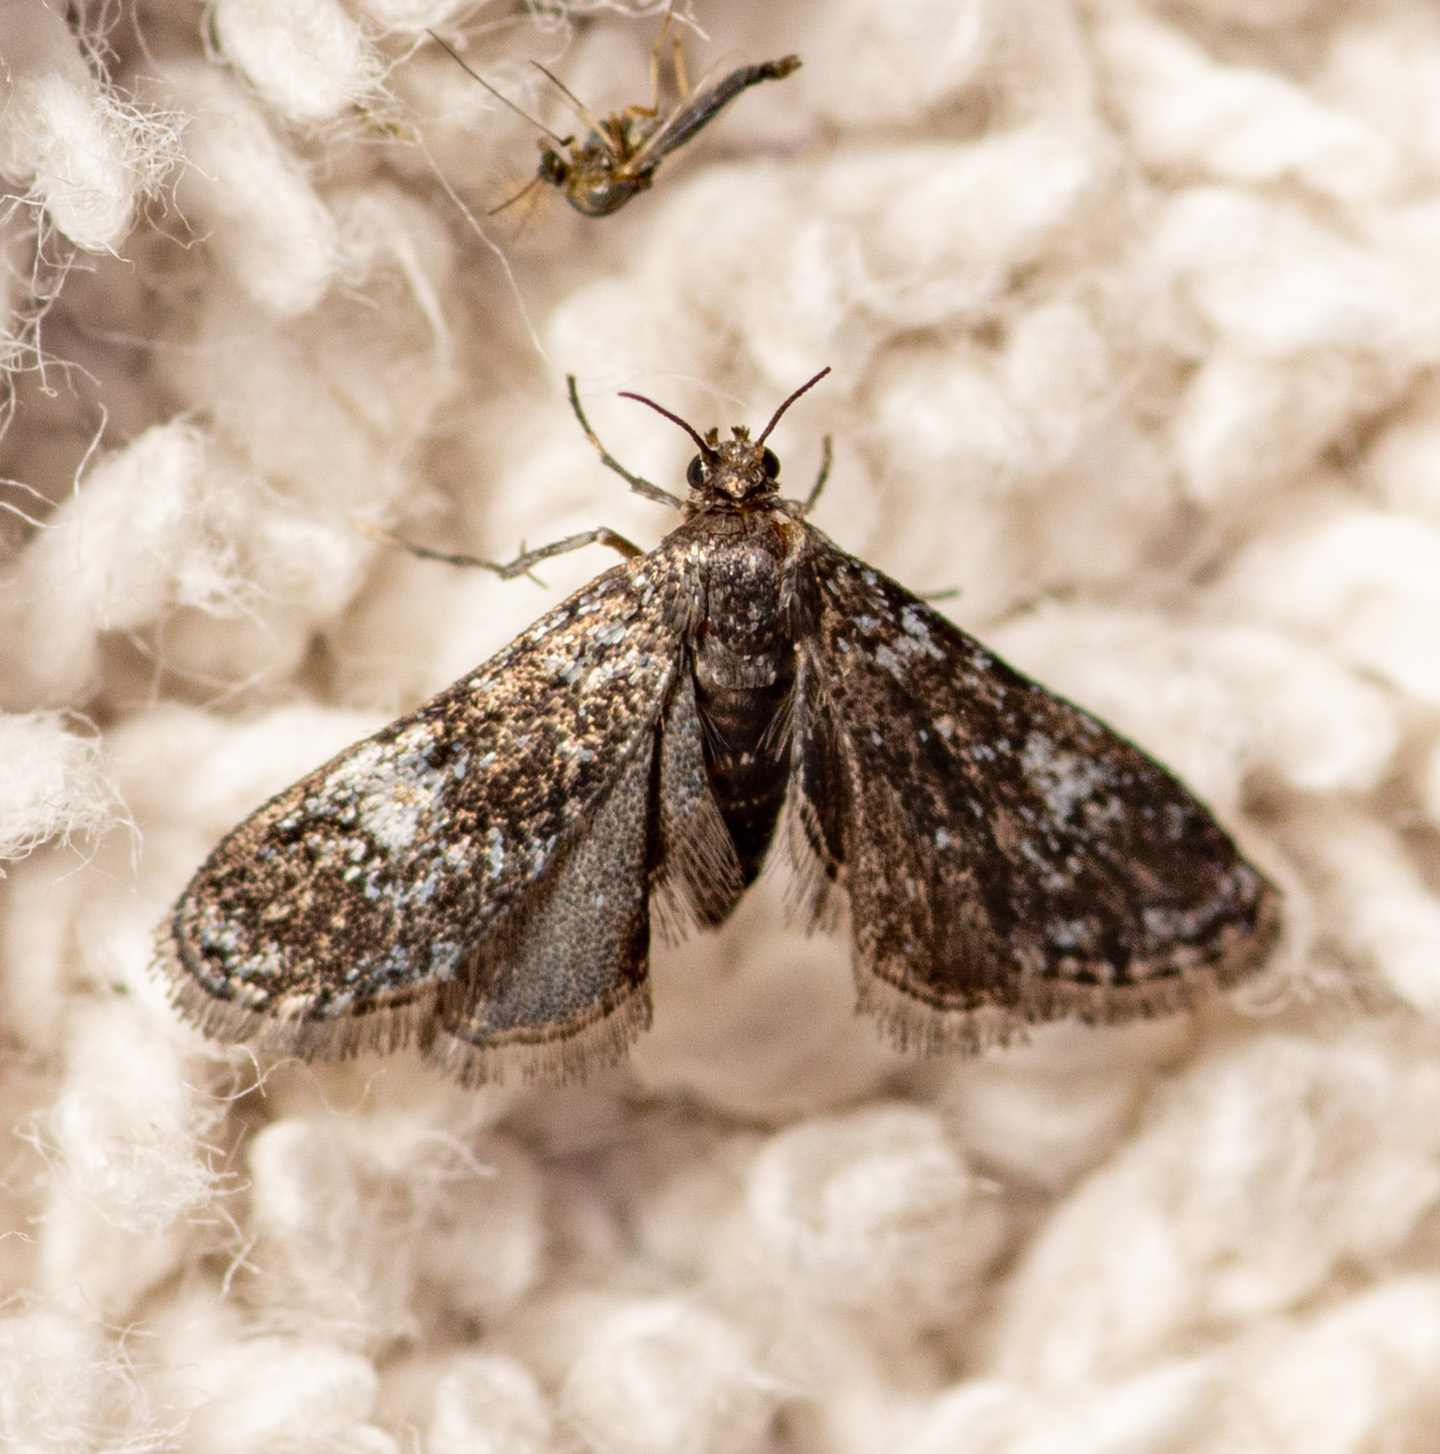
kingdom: Animalia
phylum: Arthropoda
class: Insecta
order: Lepidoptera
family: Crambidae
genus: Elophila
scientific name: Elophila tinealis
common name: Black duckweed moth
